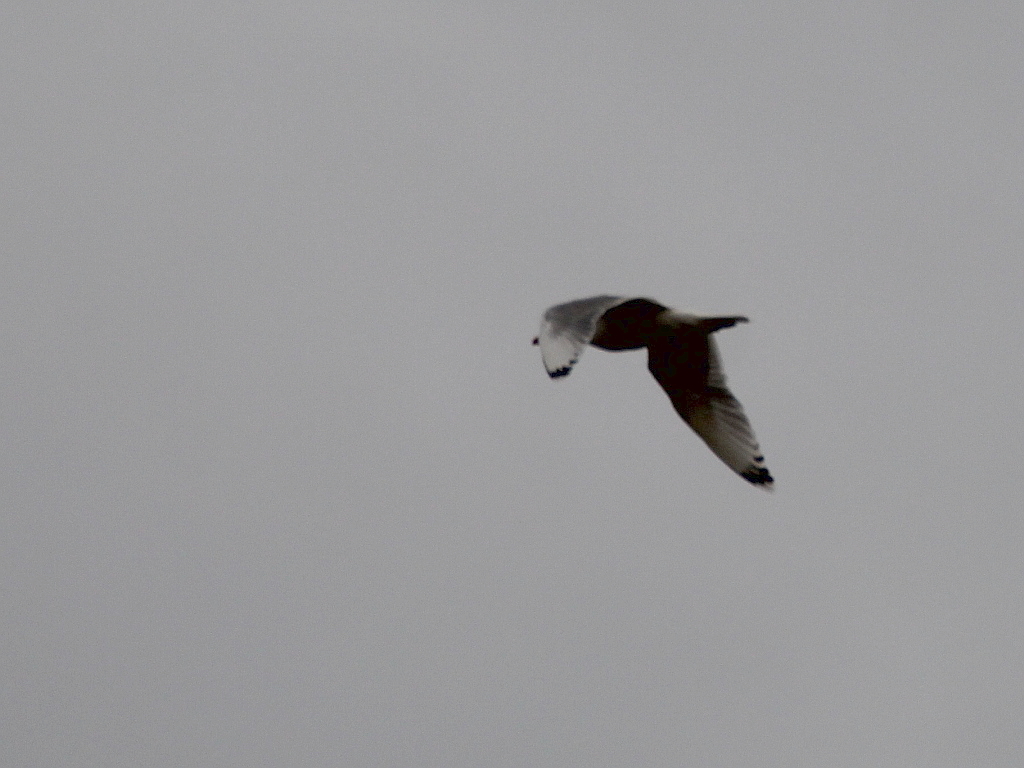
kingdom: Animalia
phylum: Chordata
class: Aves
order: Charadriiformes
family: Laridae
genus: Ichthyaetus
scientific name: Ichthyaetus ichthyaetus
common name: Pallas's gull
